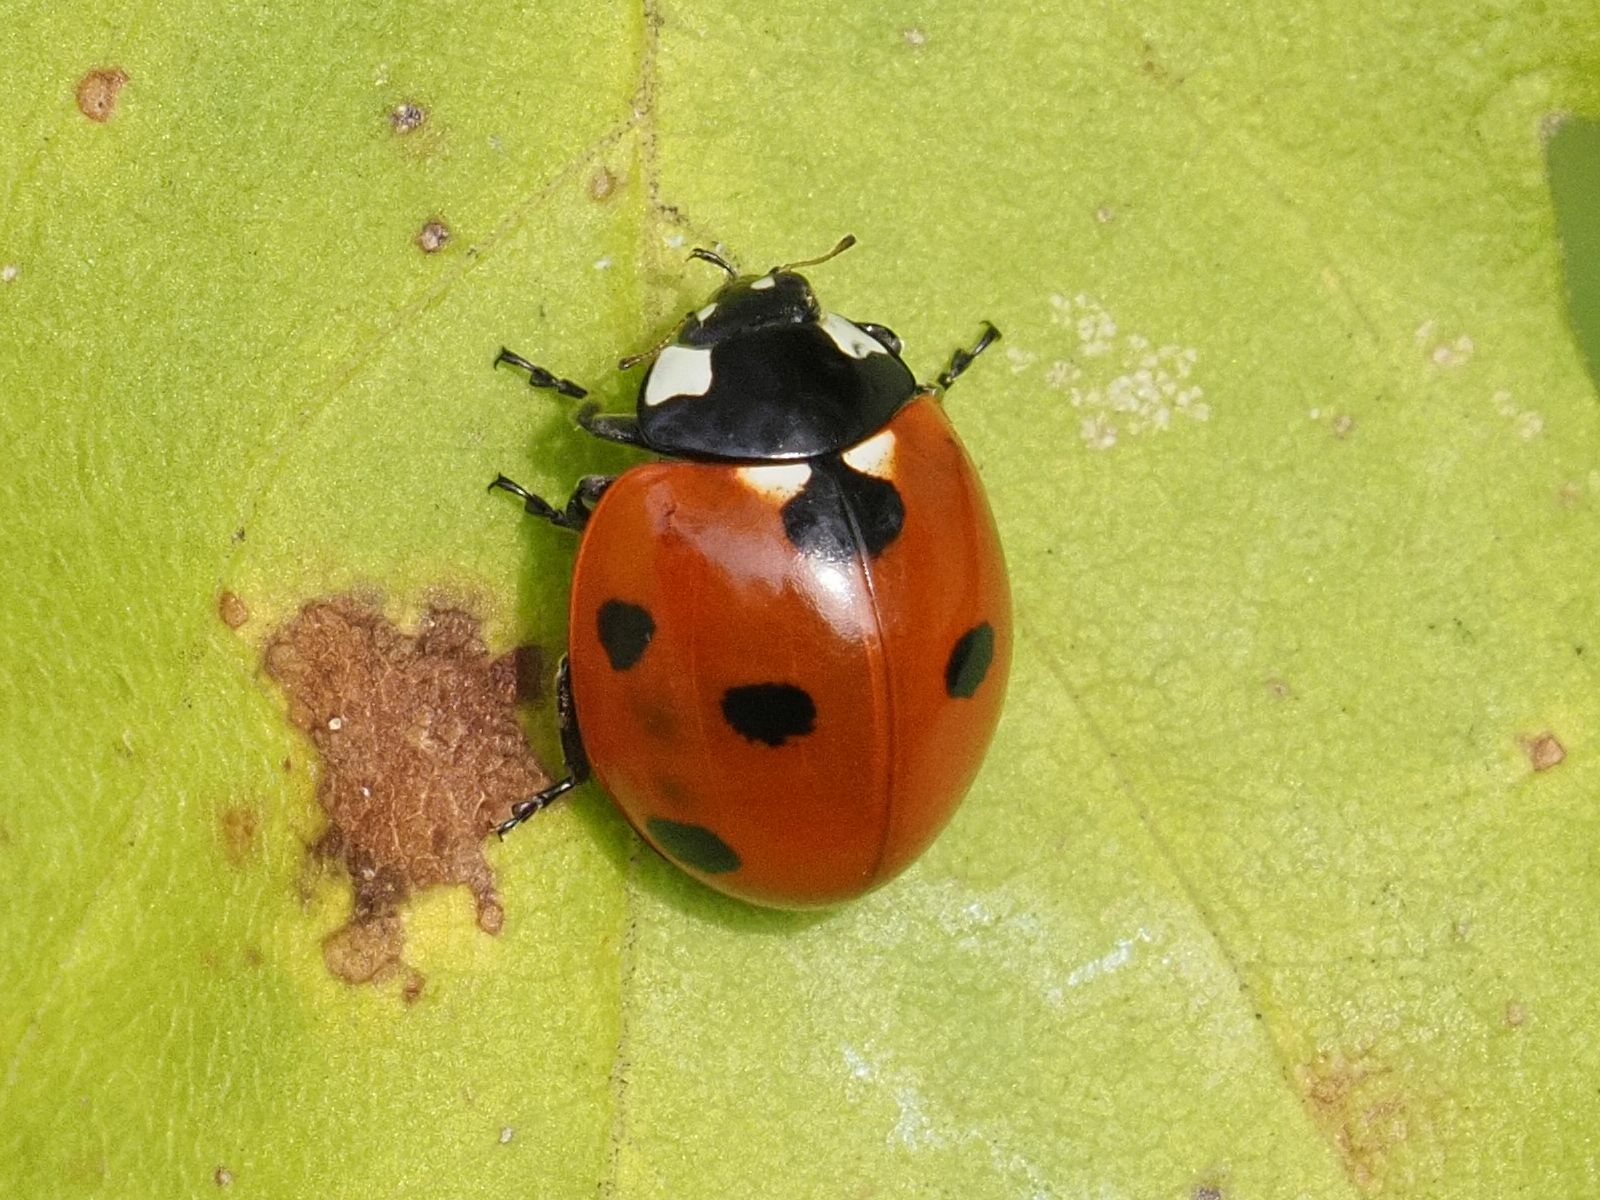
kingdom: Animalia
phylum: Arthropoda
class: Insecta
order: Coleoptera
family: Coccinellidae
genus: Coccinella
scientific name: Coccinella septempunctata
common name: Sevenspotted lady beetle
